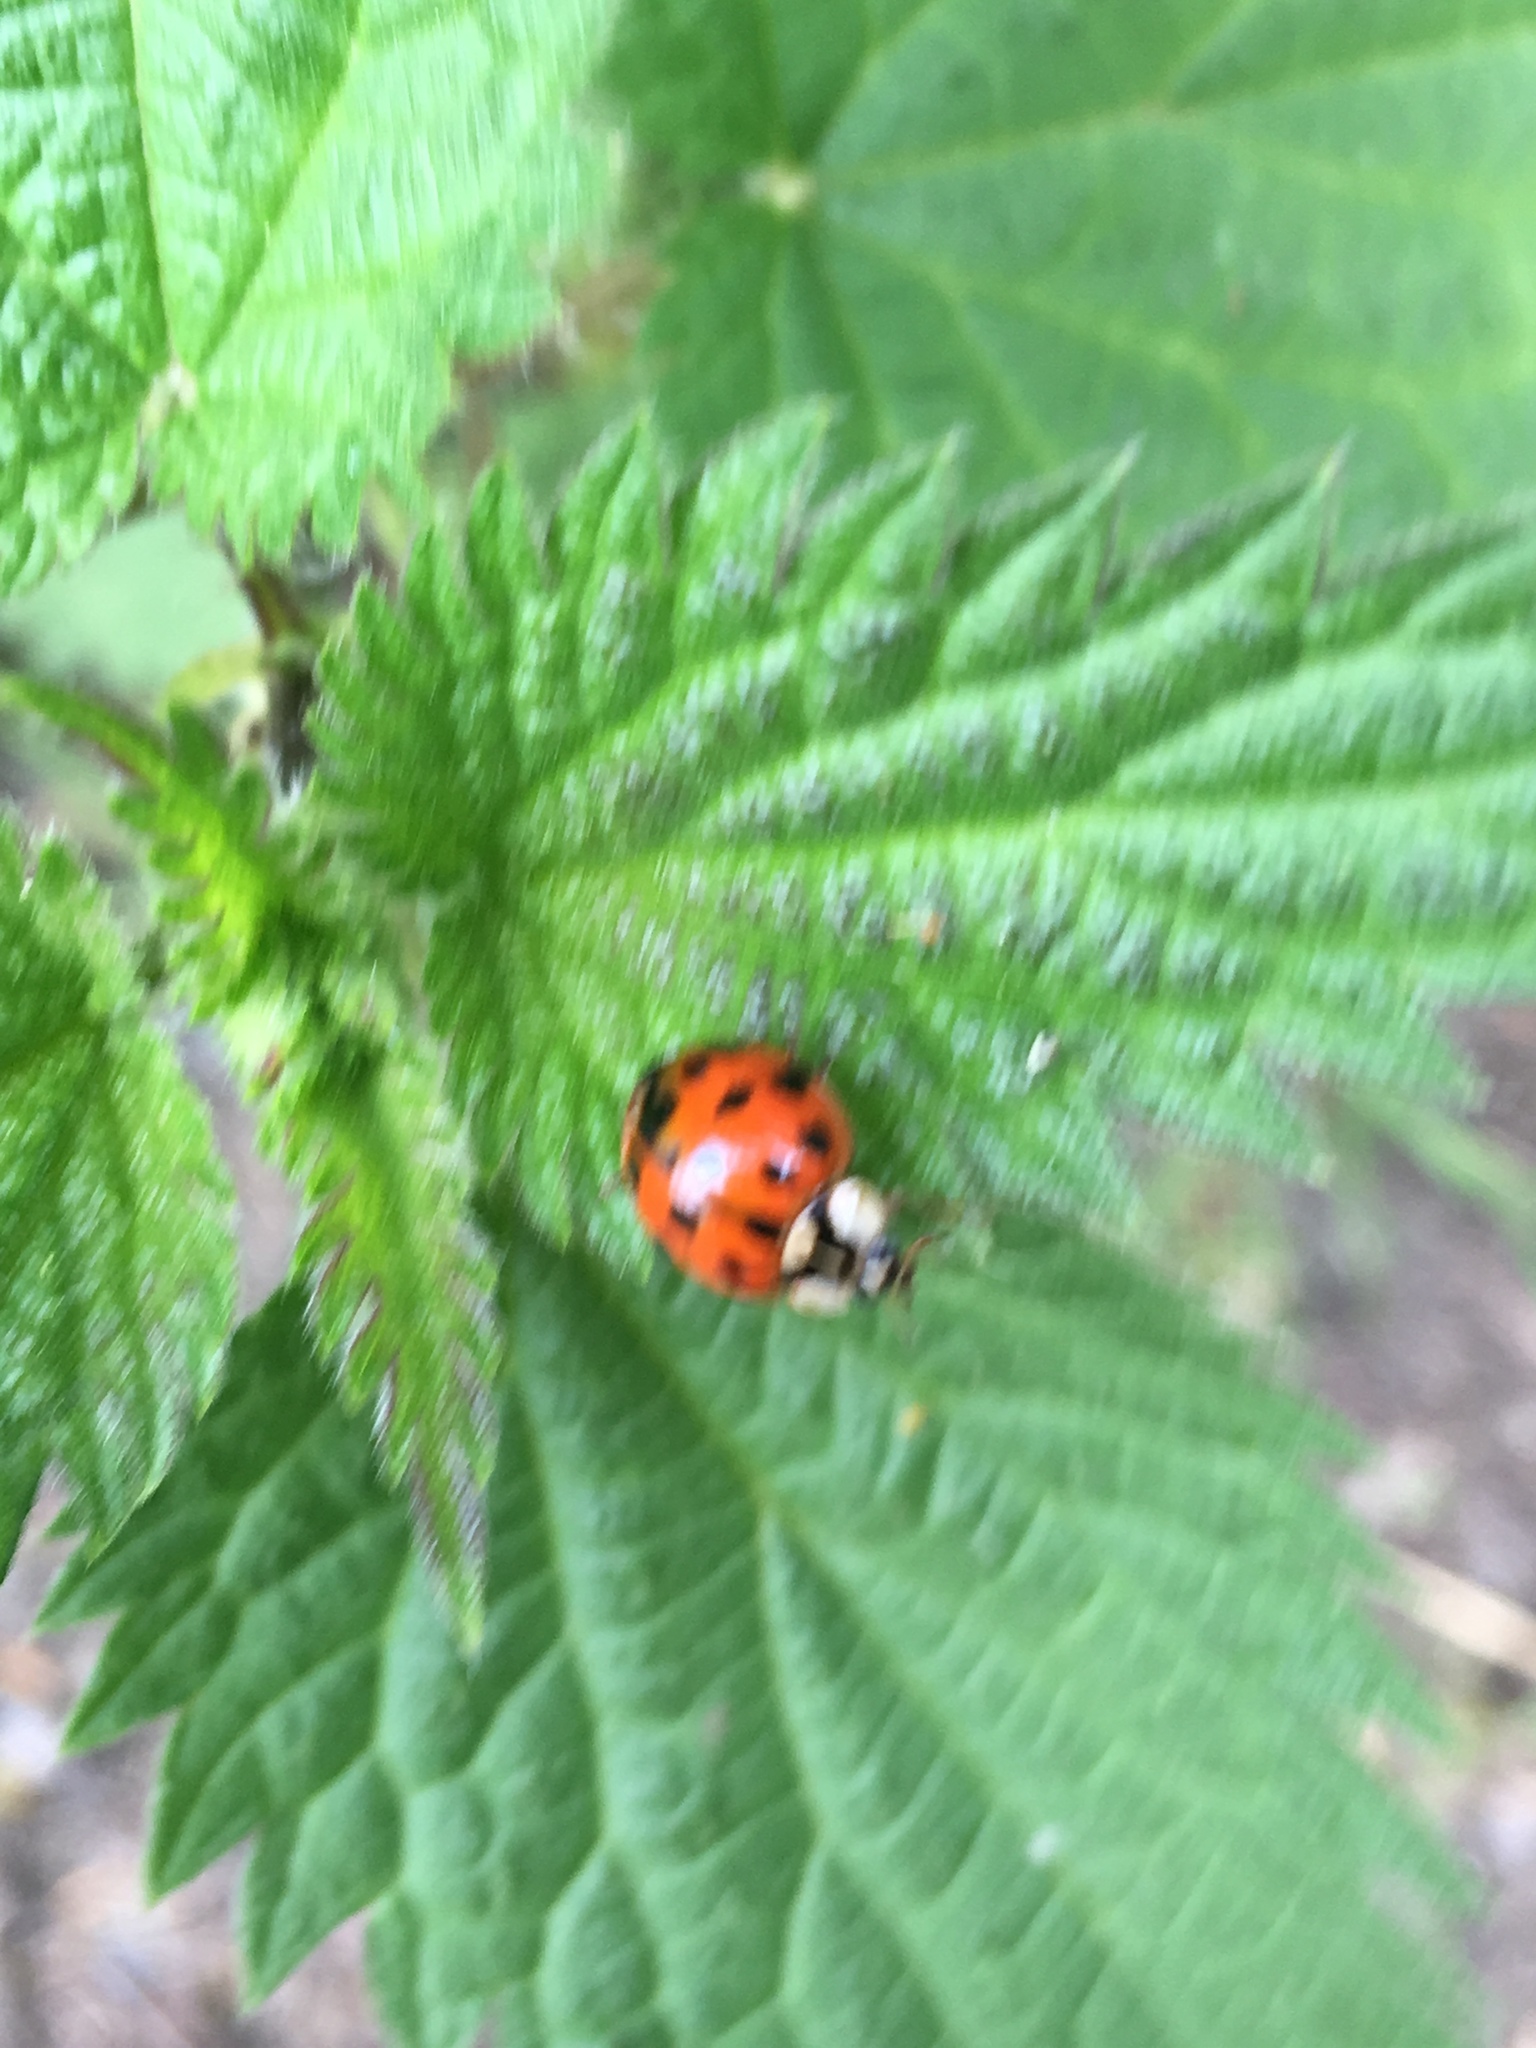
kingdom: Animalia
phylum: Arthropoda
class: Insecta
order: Coleoptera
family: Coccinellidae
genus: Harmonia
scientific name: Harmonia axyridis
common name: Harlequin ladybird
